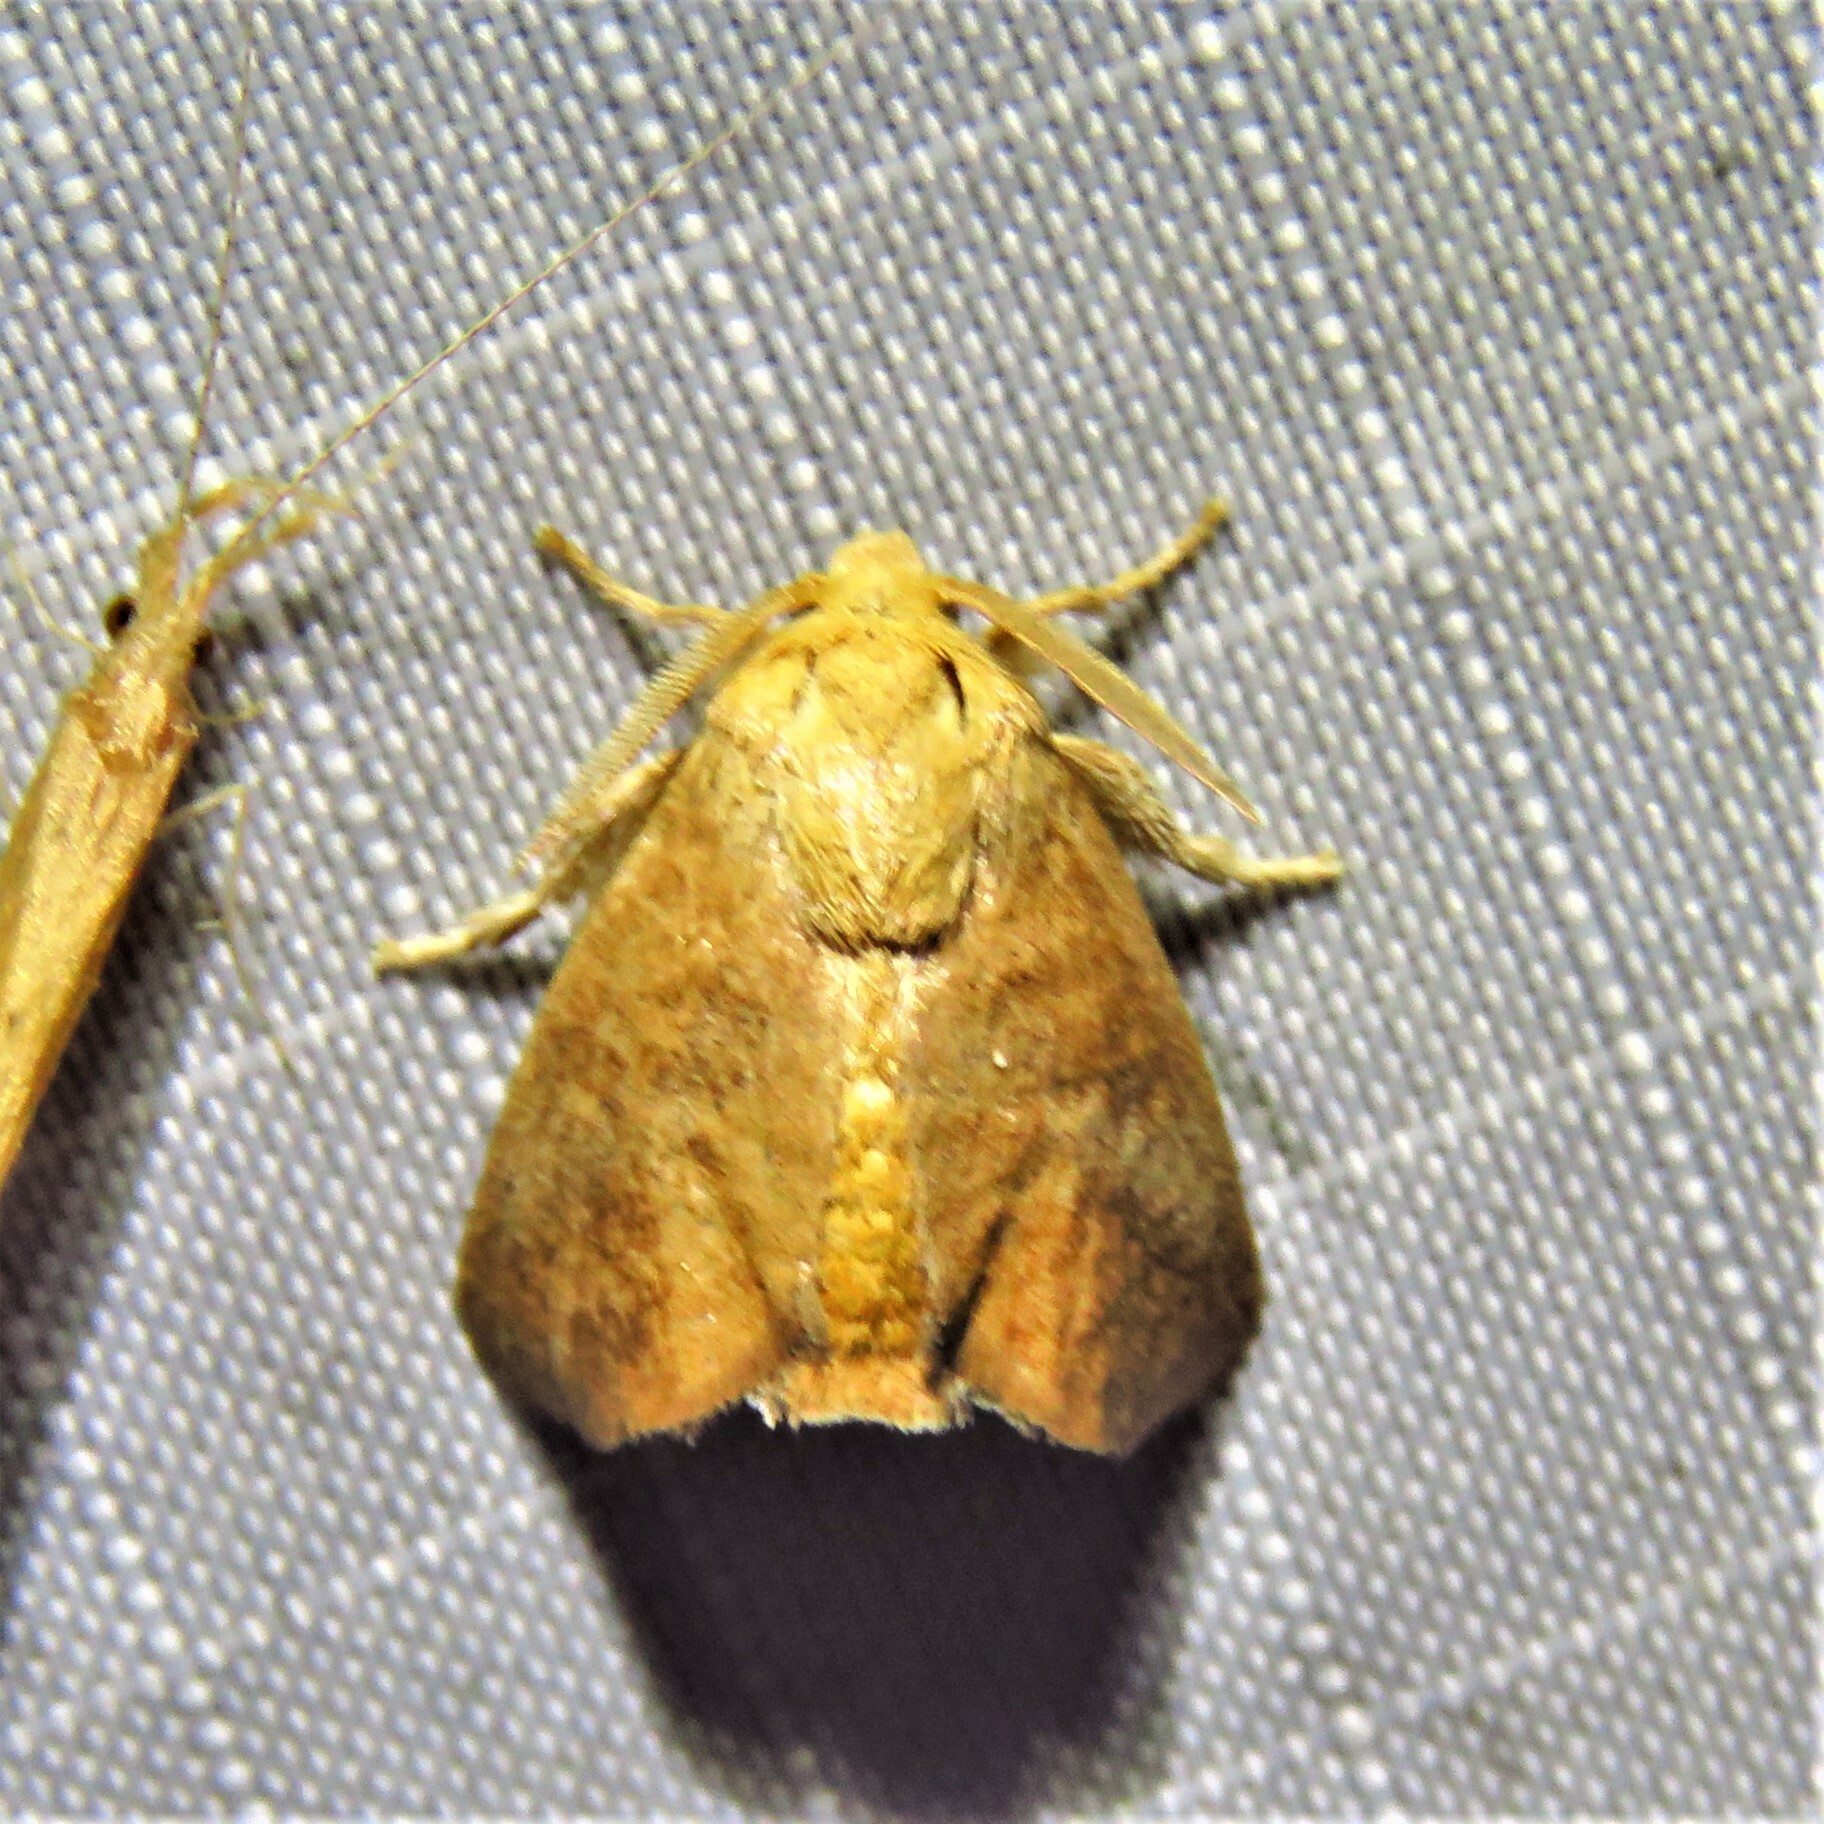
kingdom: Animalia
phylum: Arthropoda
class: Insecta
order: Lepidoptera
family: Limacodidae
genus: Isa
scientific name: Isa textula
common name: Crowned slug moth
